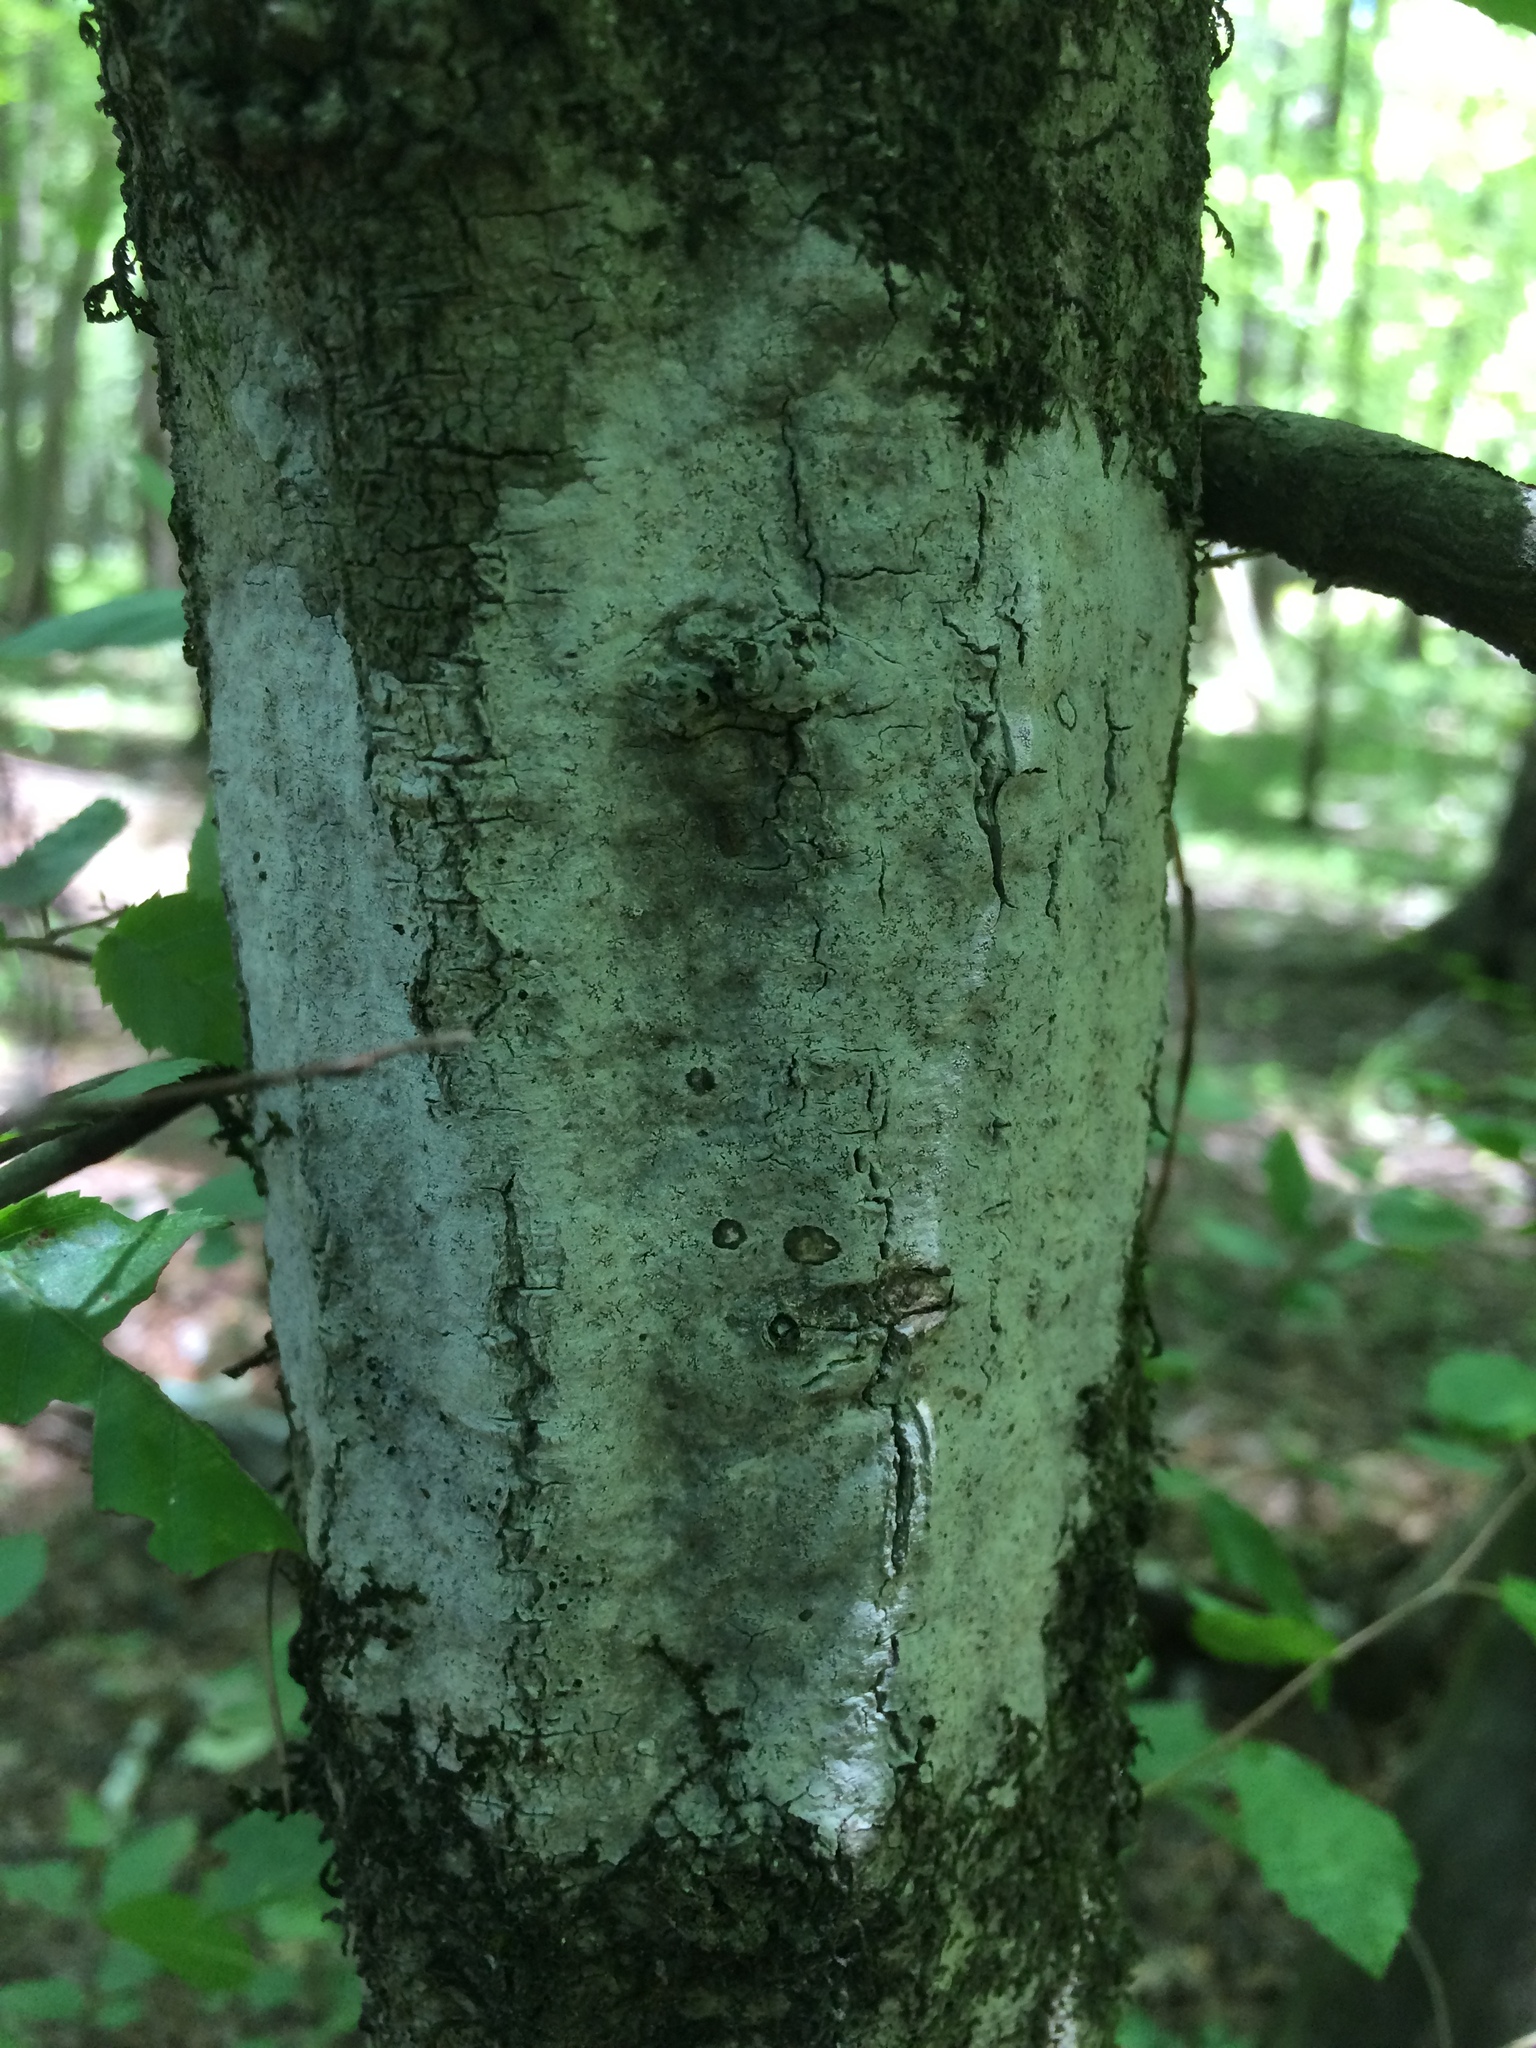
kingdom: Plantae
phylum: Tracheophyta
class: Magnoliopsida
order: Fagales
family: Betulaceae
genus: Carpinus
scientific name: Carpinus caroliniana
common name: American hornbeam
